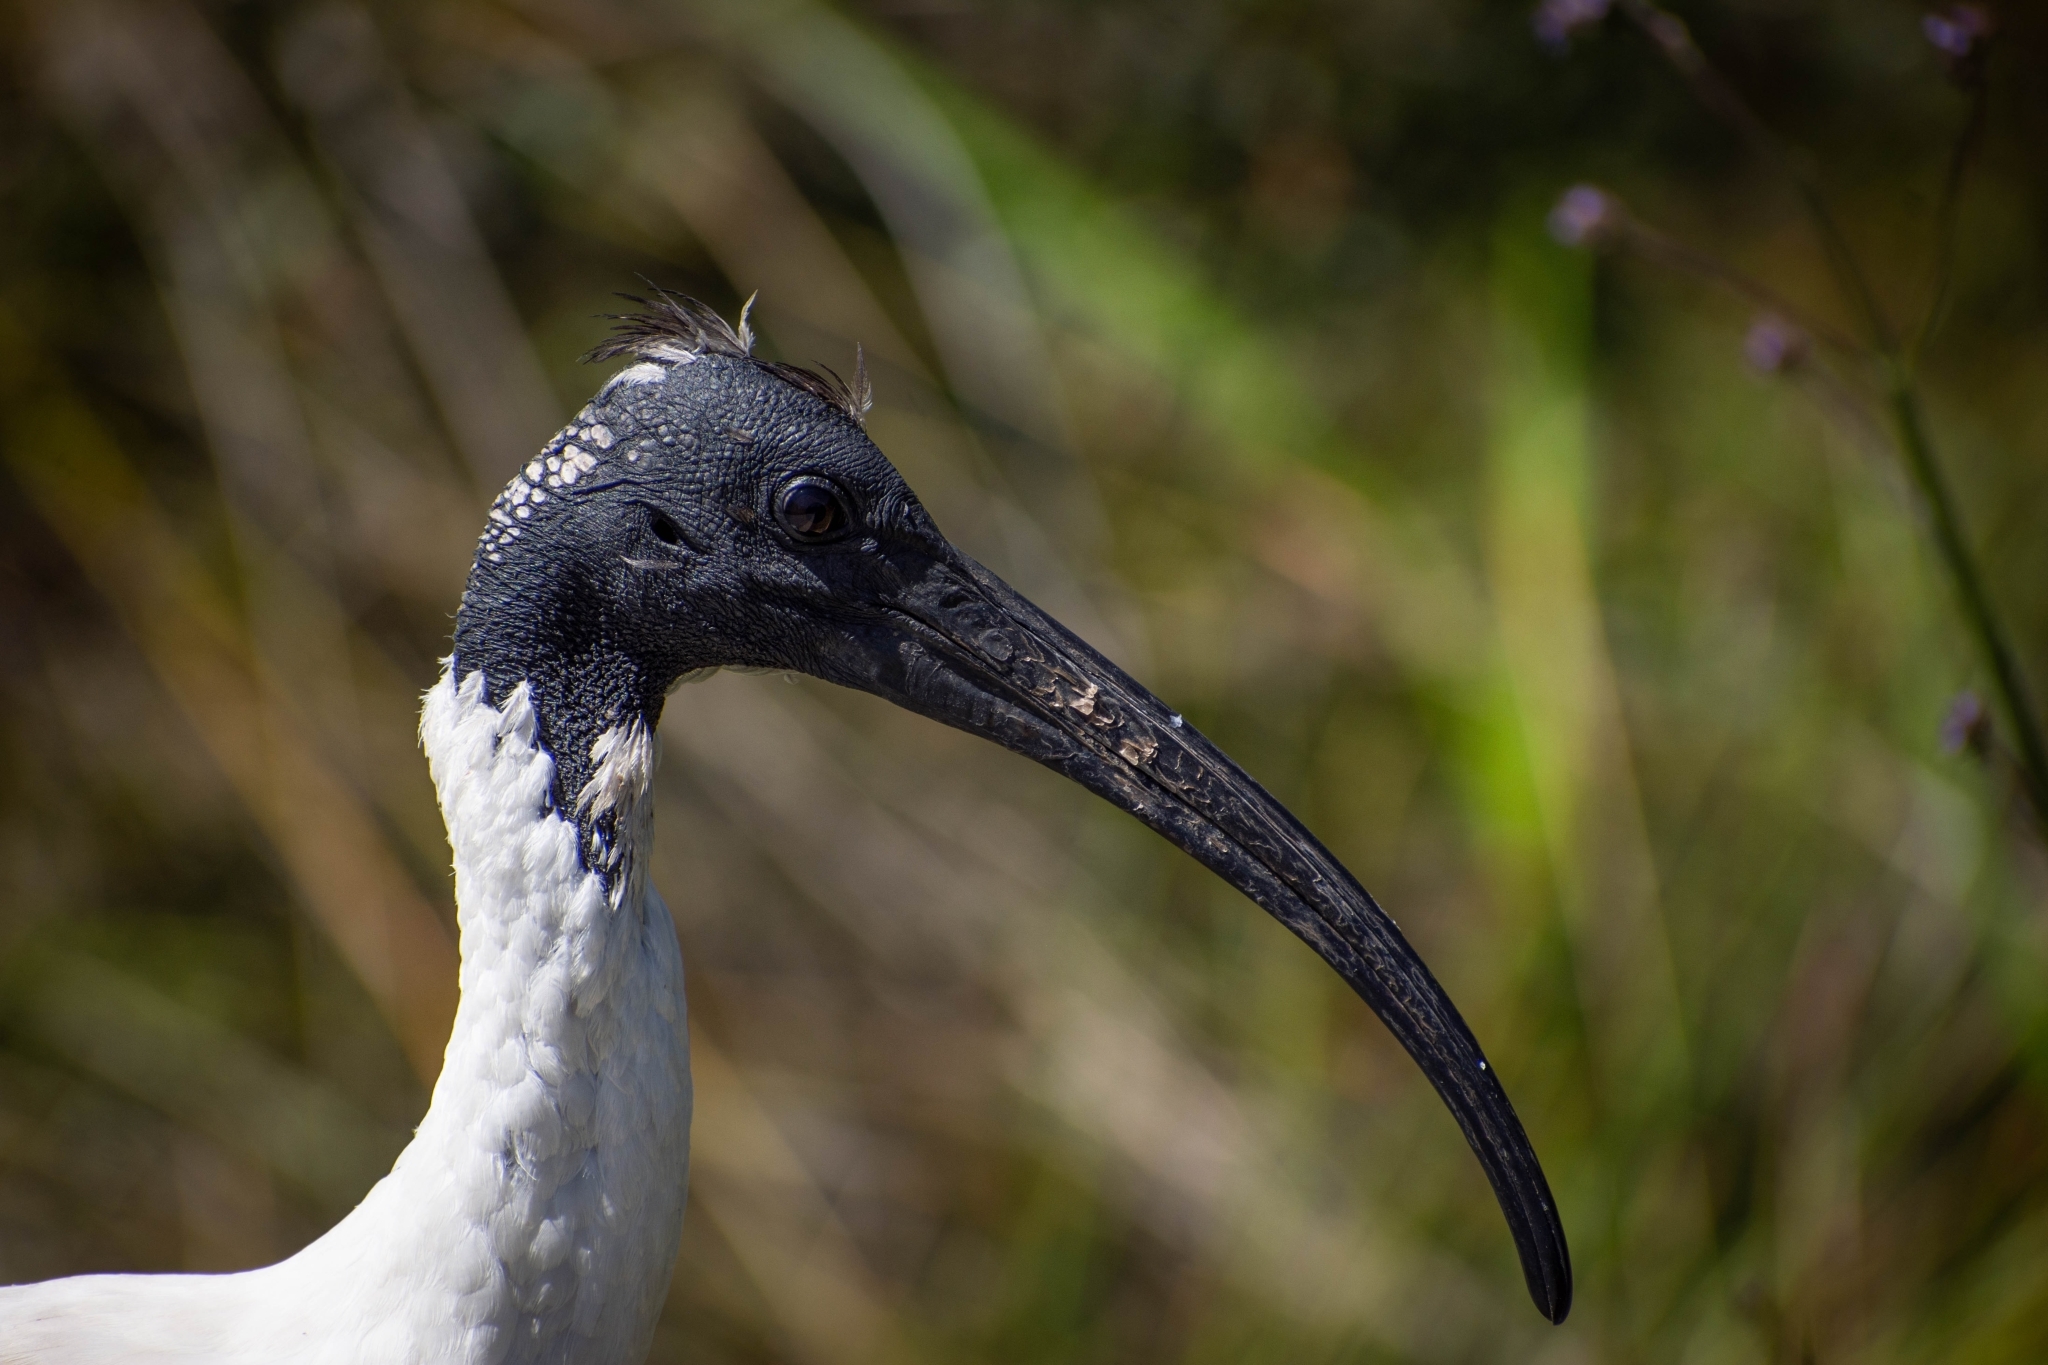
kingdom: Animalia
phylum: Chordata
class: Aves
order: Pelecaniformes
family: Threskiornithidae
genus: Threskiornis
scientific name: Threskiornis molucca
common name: Australian white ibis
